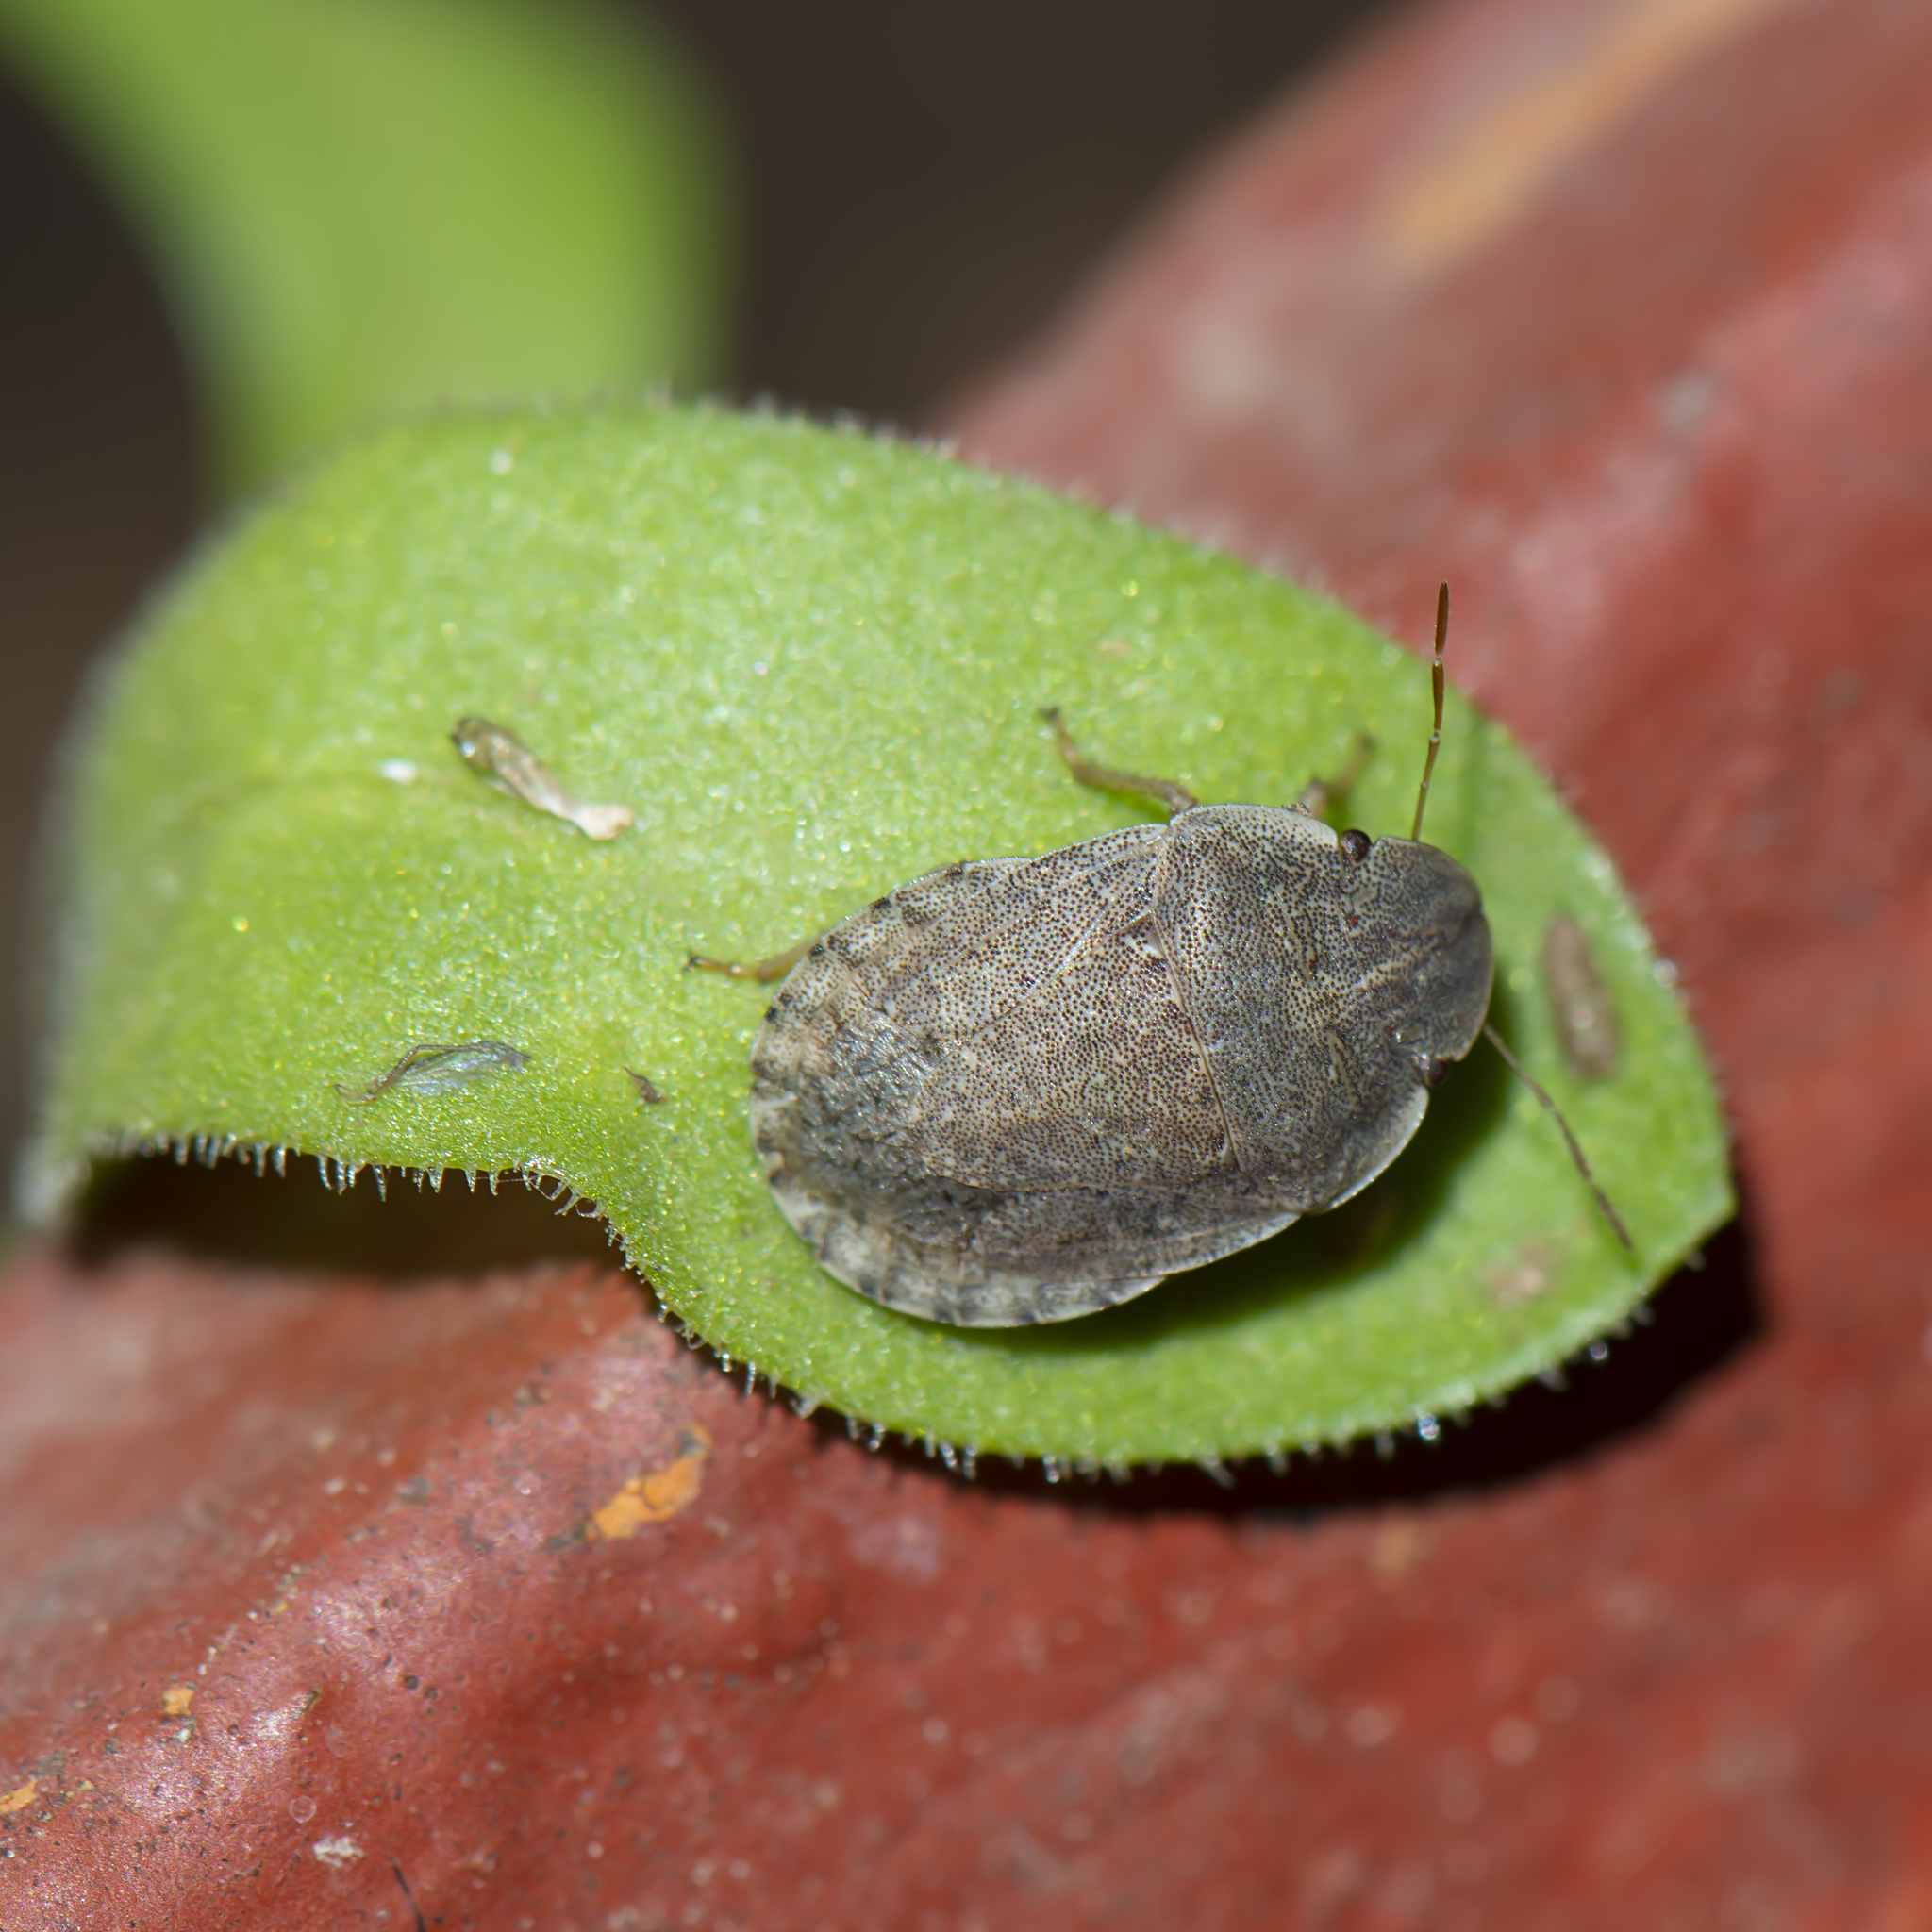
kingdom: Animalia
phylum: Arthropoda
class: Insecta
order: Hemiptera
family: Pentatomidae
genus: Sciocoris
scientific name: Sciocoris deltocephalus
